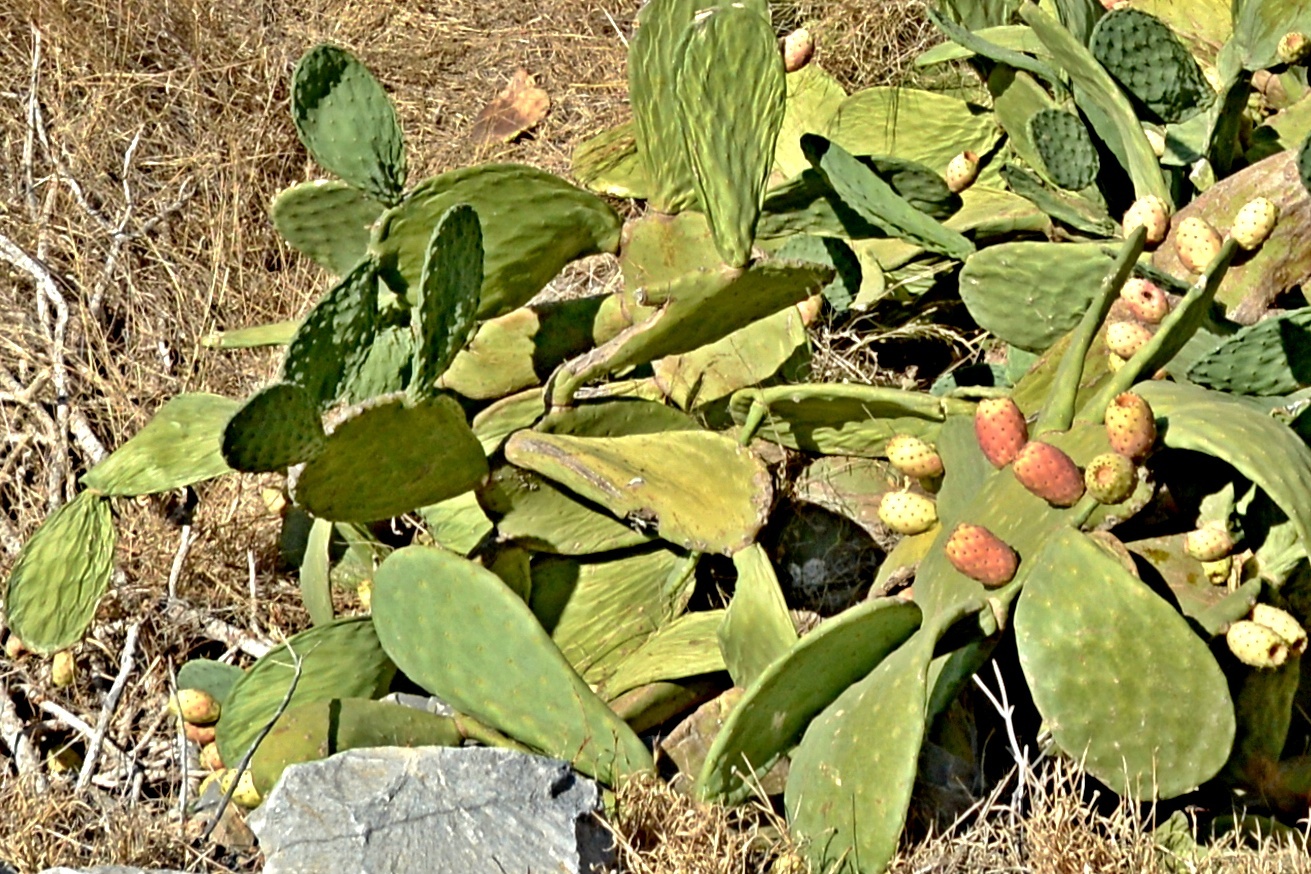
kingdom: Plantae
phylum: Tracheophyta
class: Magnoliopsida
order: Caryophyllales
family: Cactaceae
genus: Opuntia
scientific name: Opuntia ficus-indica
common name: Barbary fig
